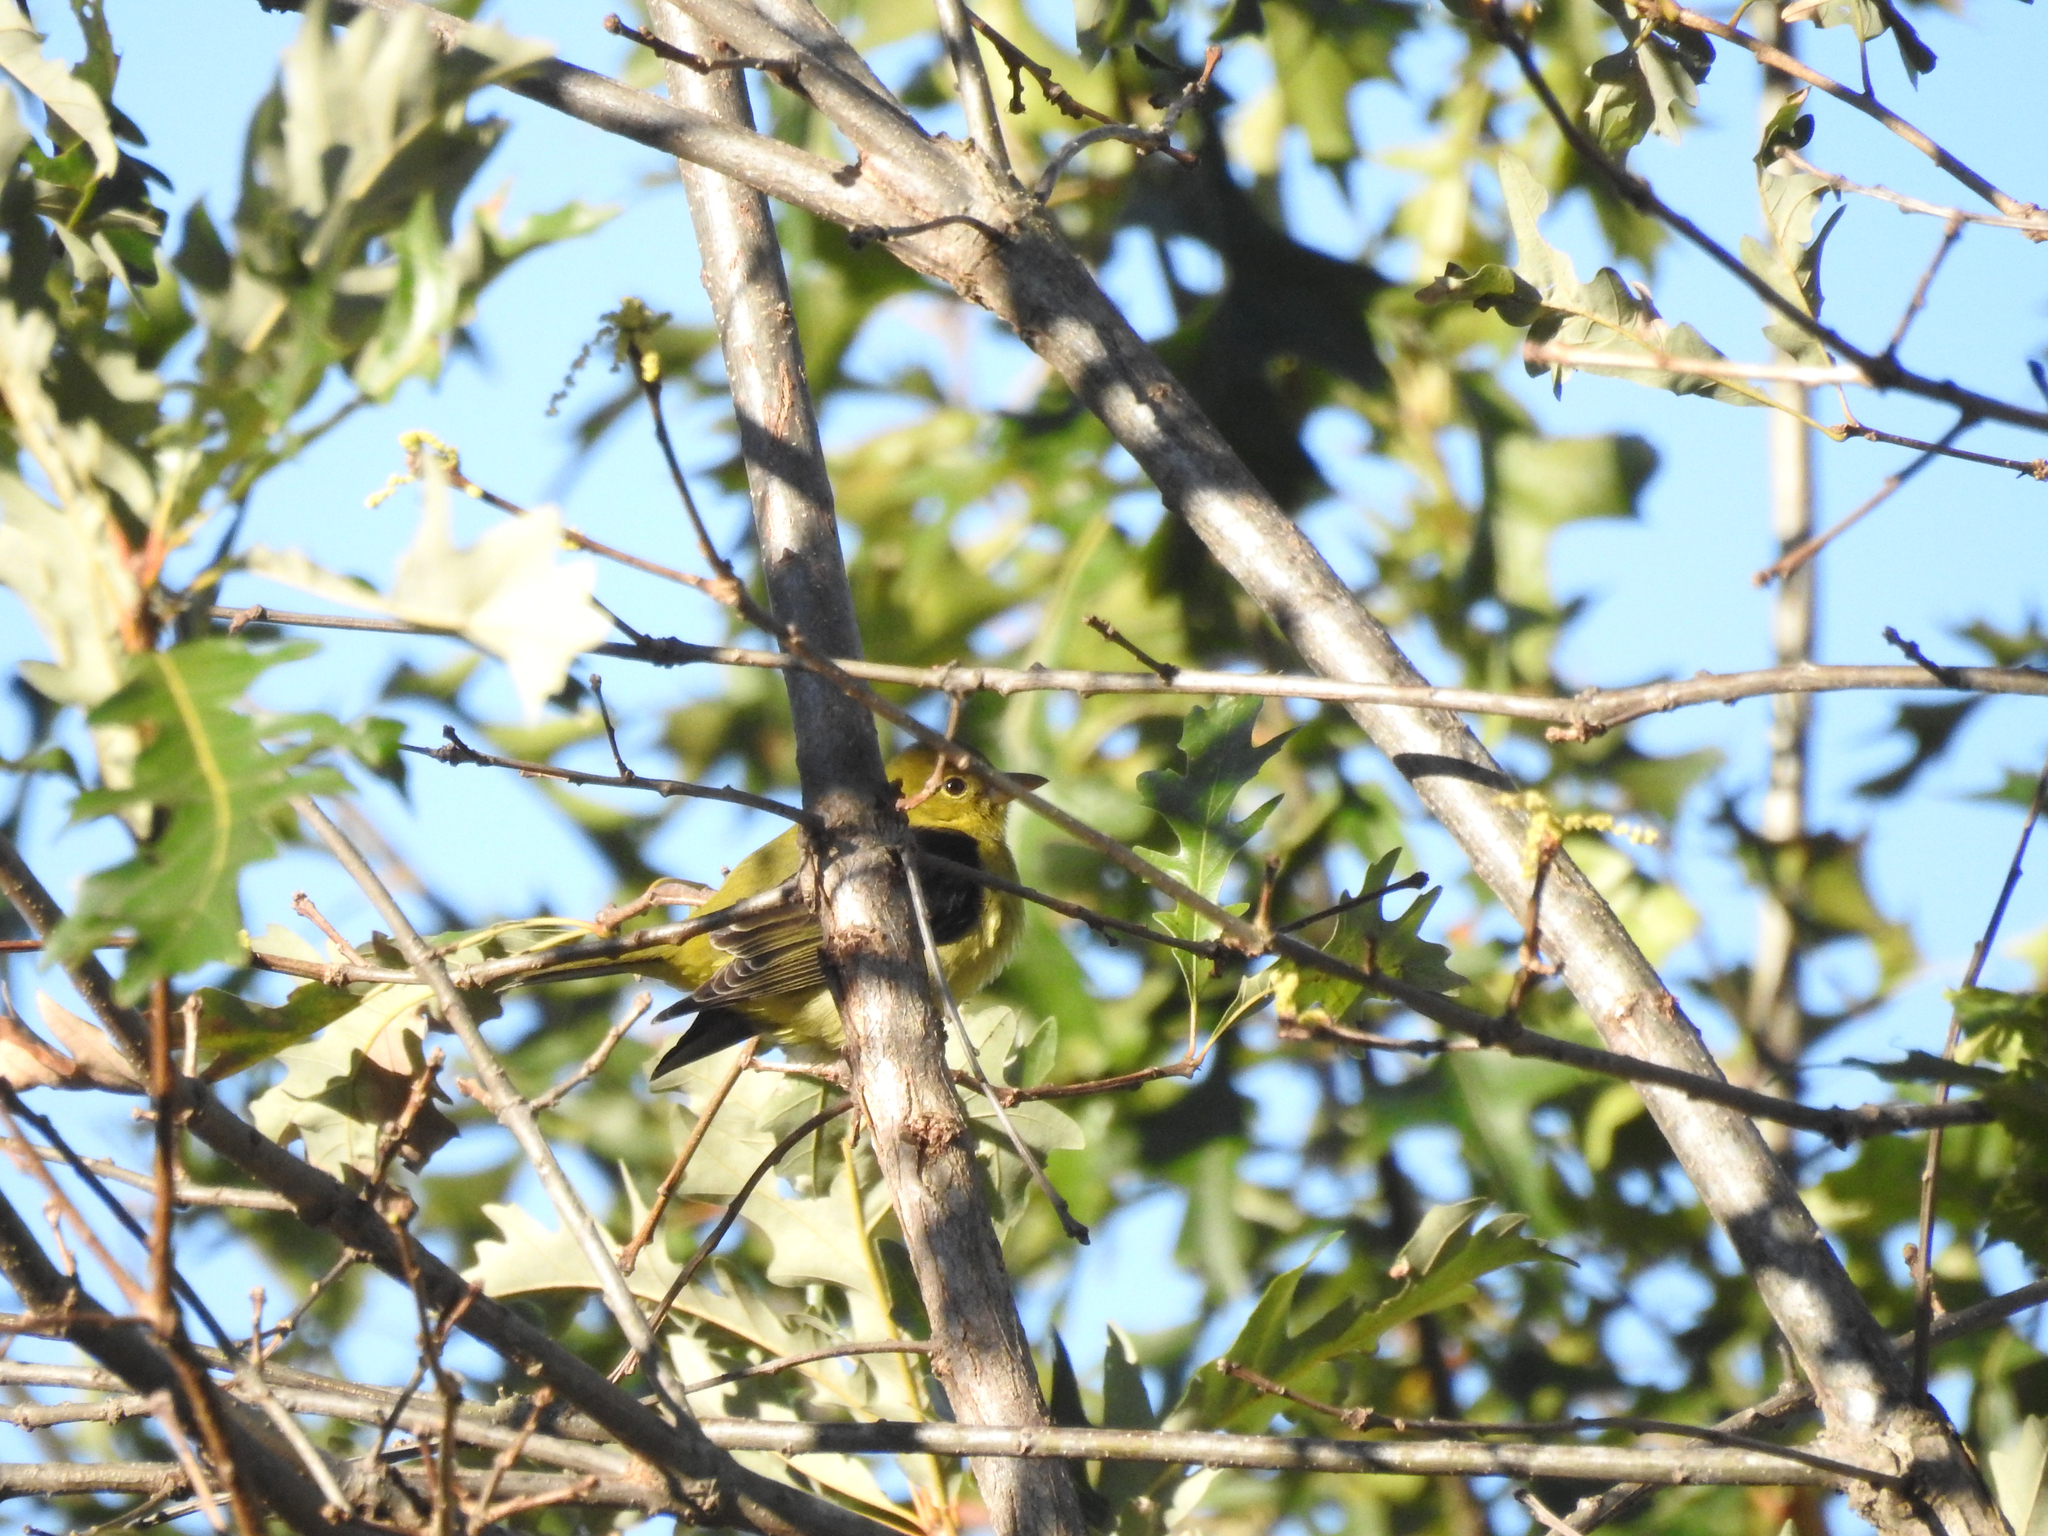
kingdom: Animalia
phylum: Chordata
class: Aves
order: Passeriformes
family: Cardinalidae
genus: Piranga
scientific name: Piranga olivacea
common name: Scarlet tanager
